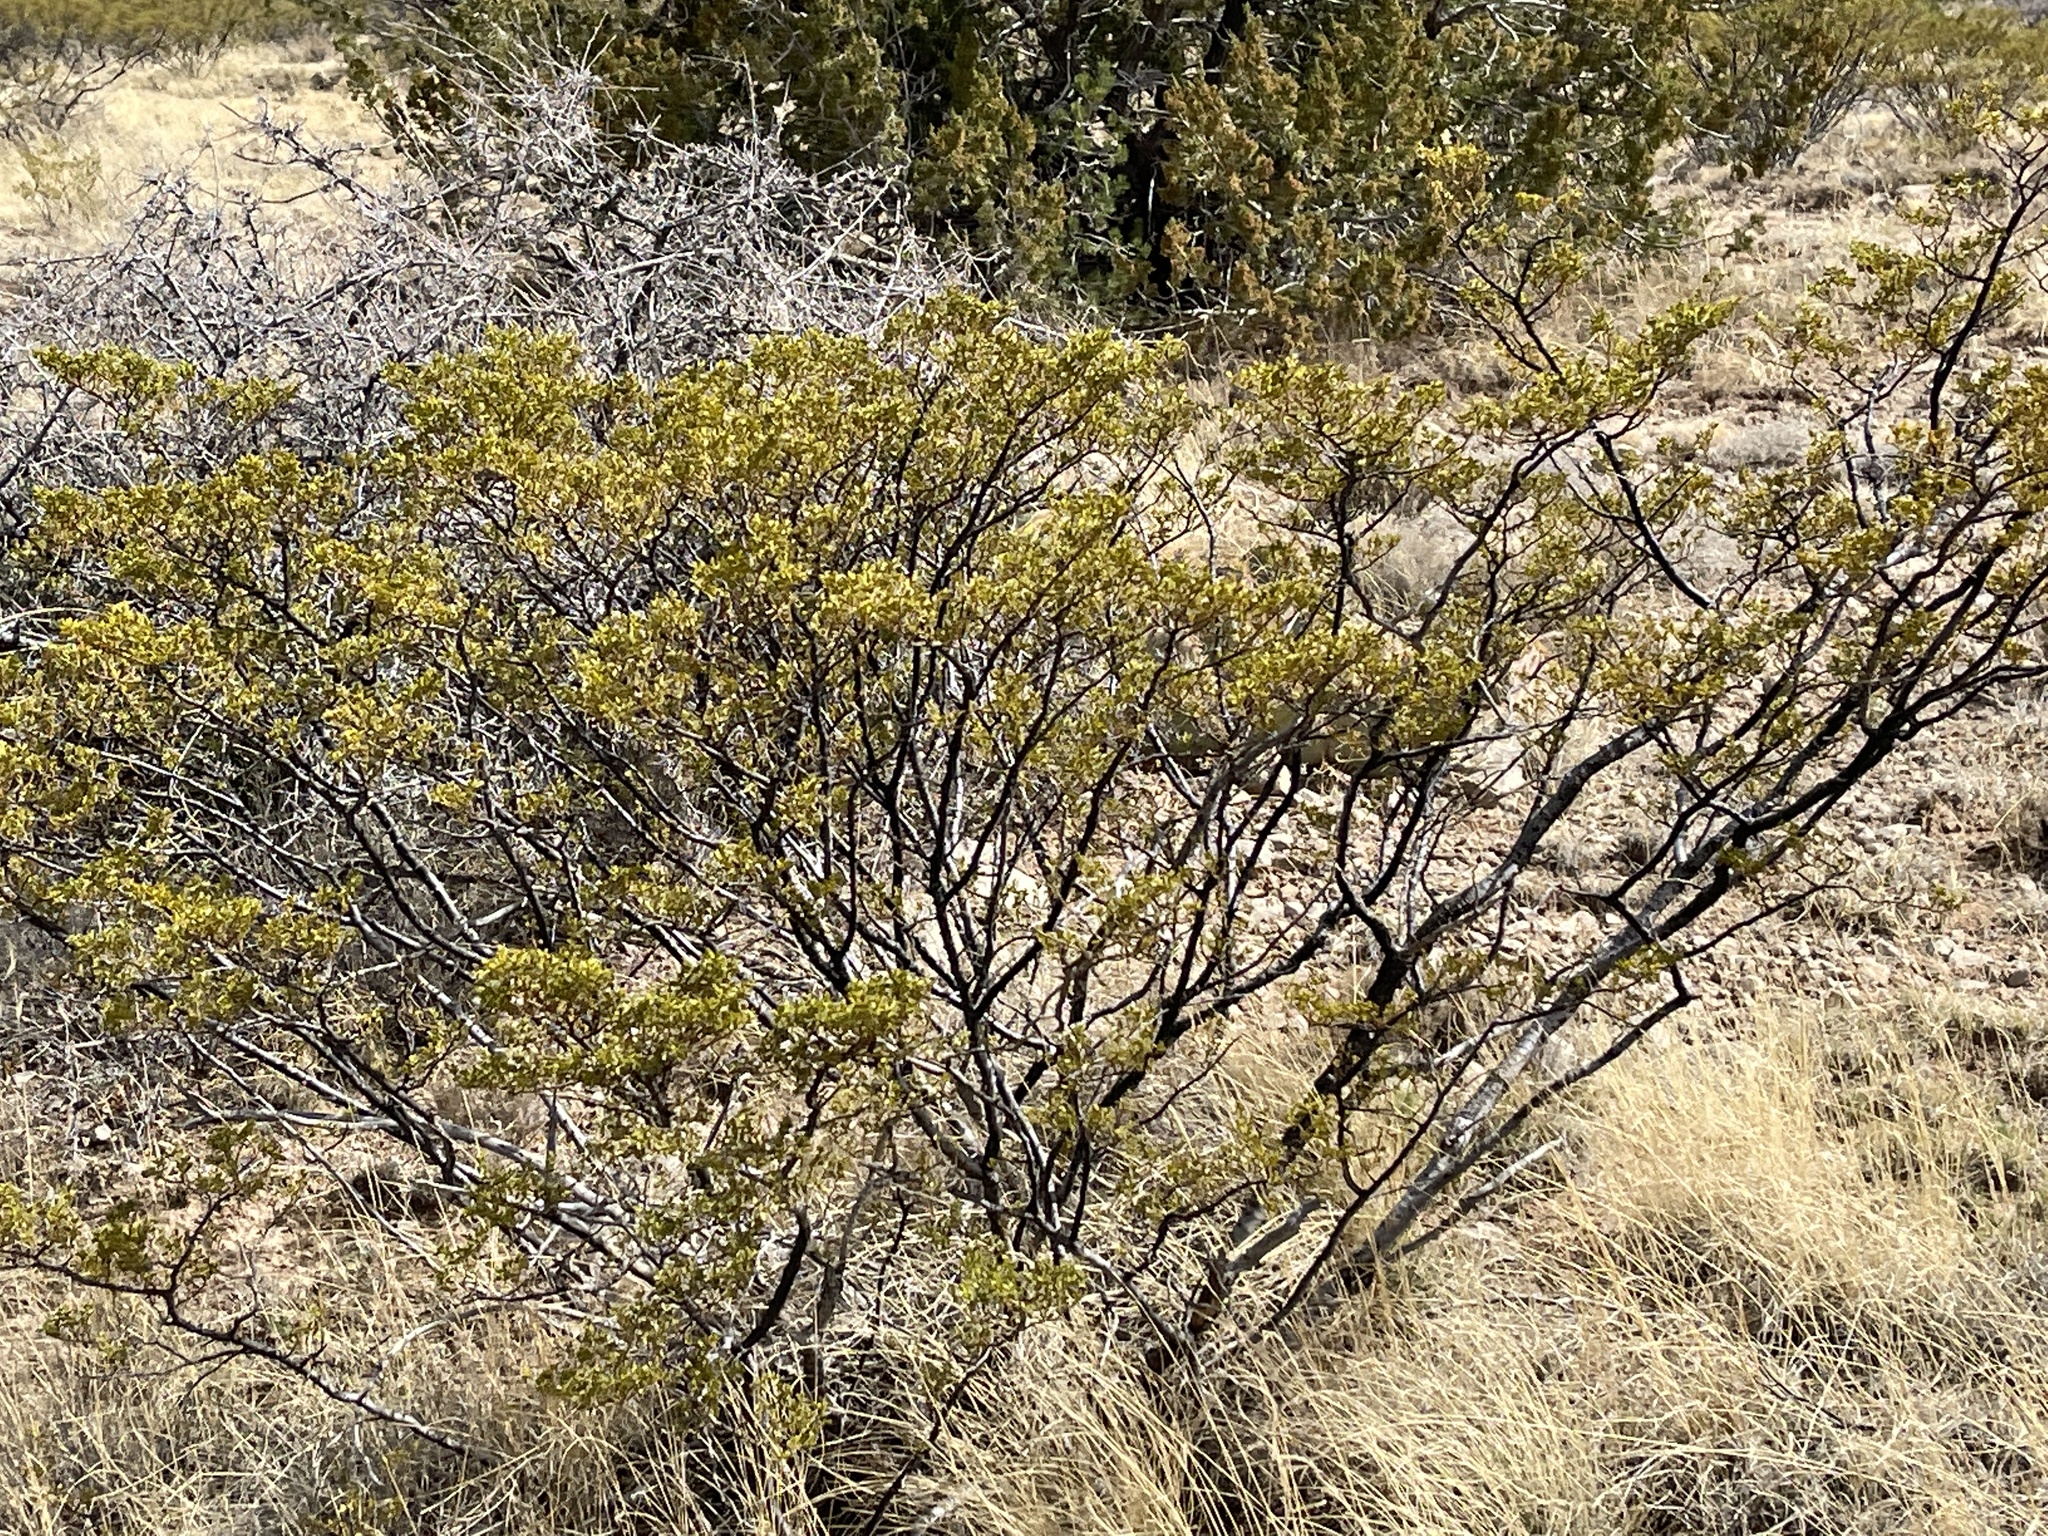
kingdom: Plantae
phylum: Tracheophyta
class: Magnoliopsida
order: Zygophyllales
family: Zygophyllaceae
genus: Larrea
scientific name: Larrea tridentata
